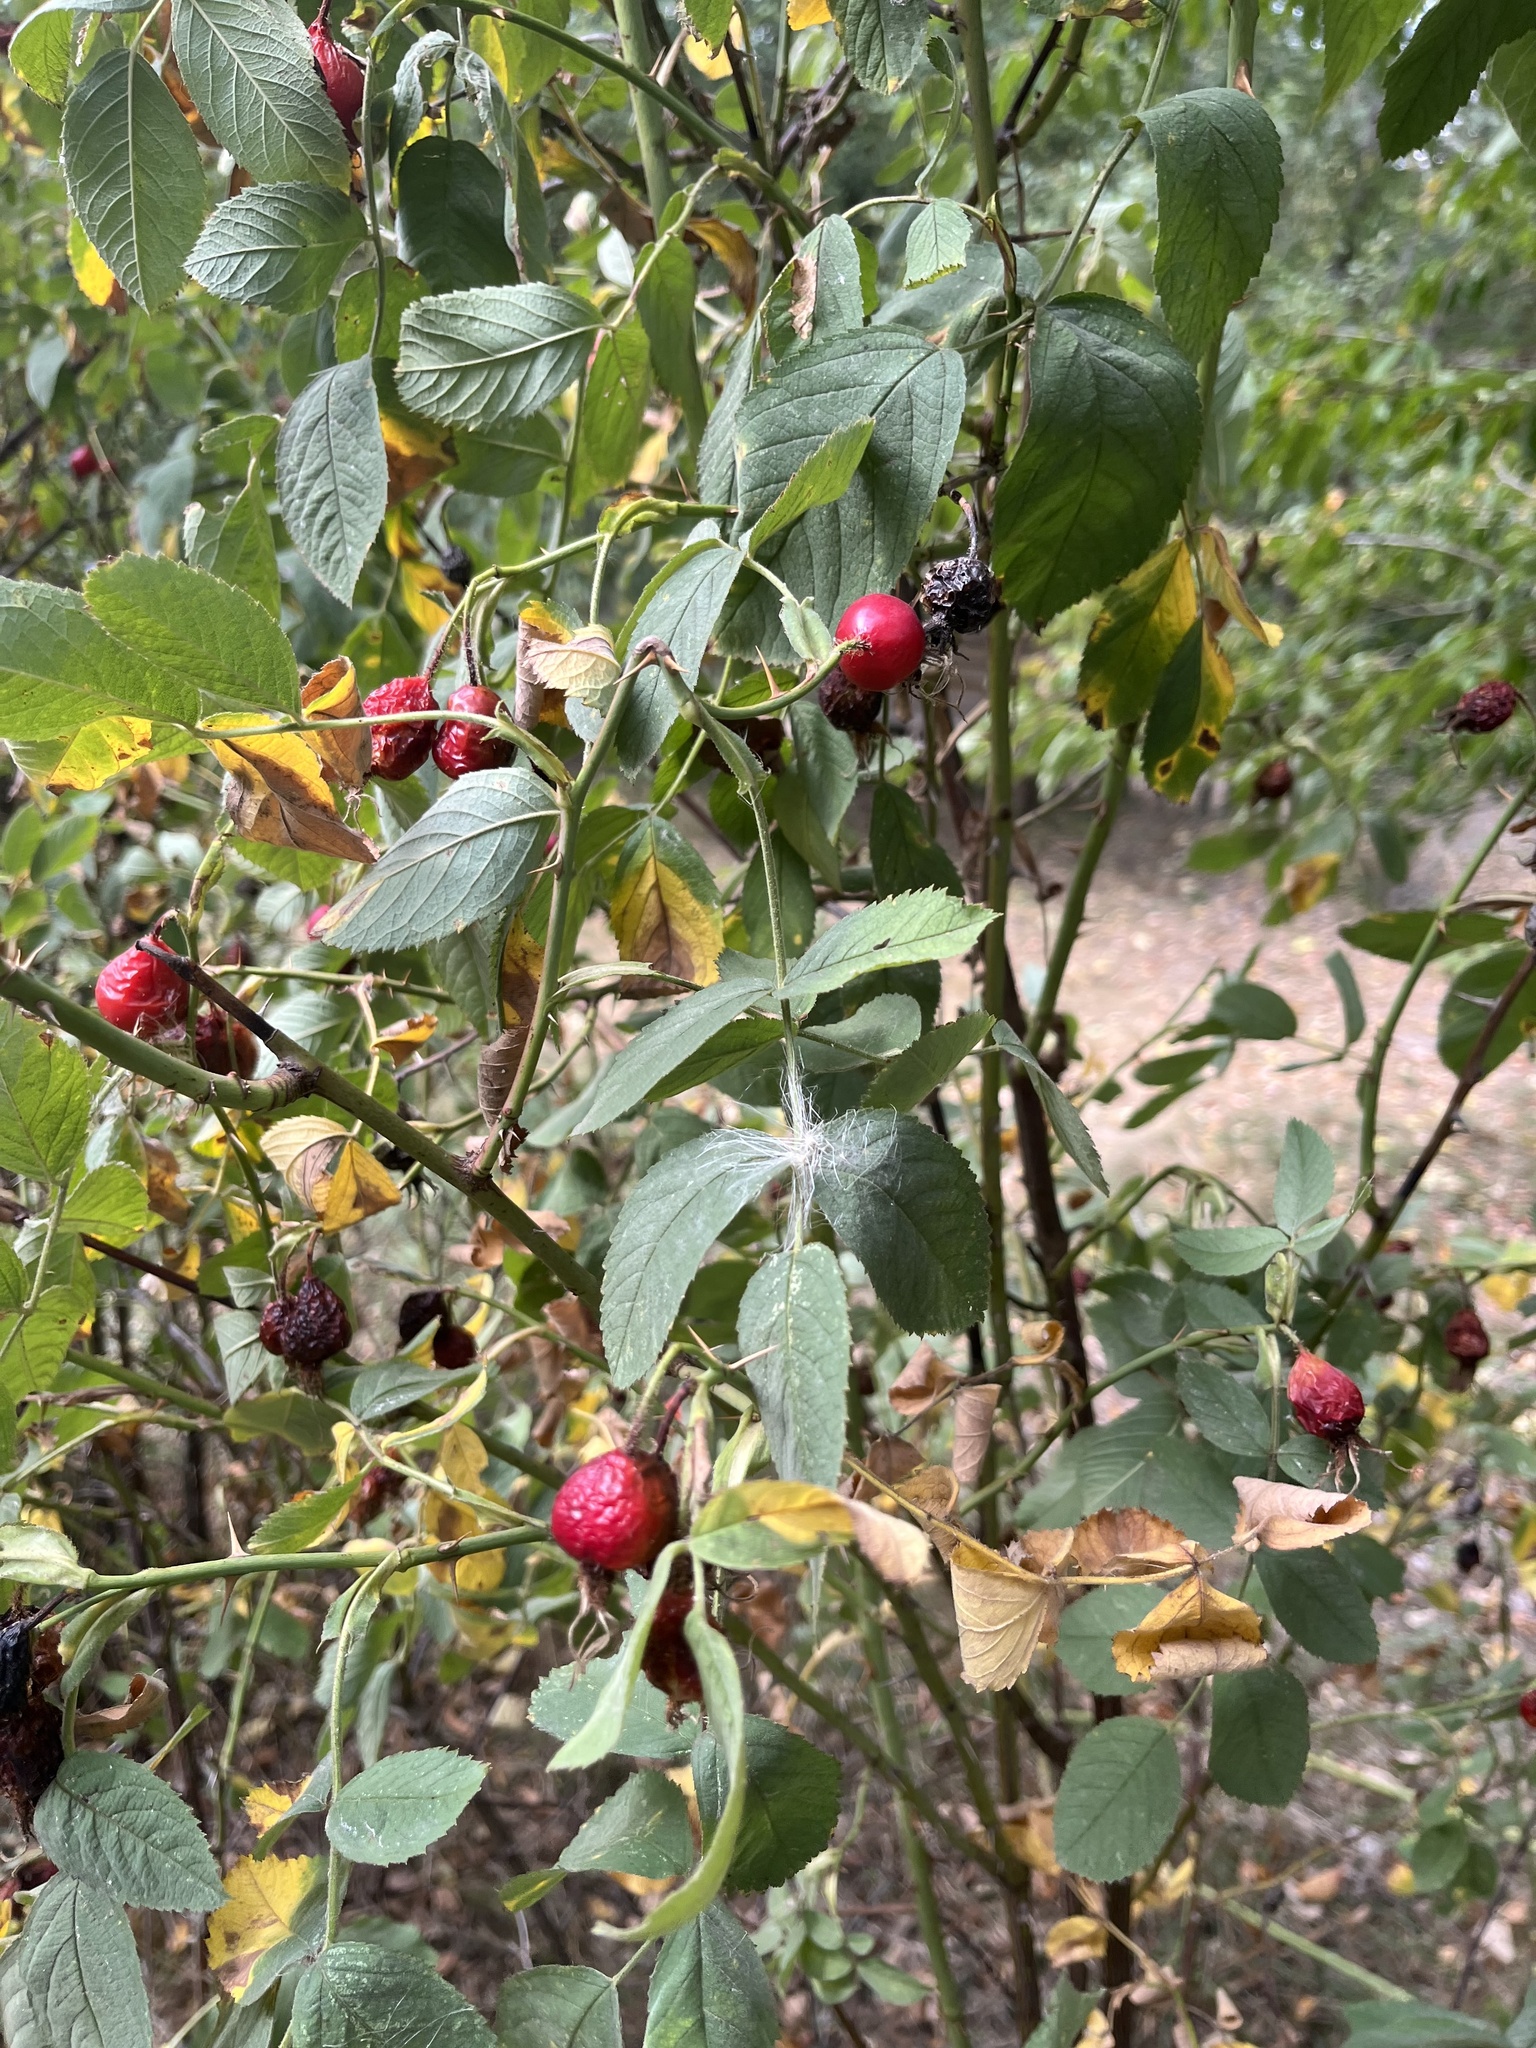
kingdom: Plantae
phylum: Tracheophyta
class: Magnoliopsida
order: Rosales
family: Rosaceae
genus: Rosa
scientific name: Rosa sherardii
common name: Sherard's downy rose
